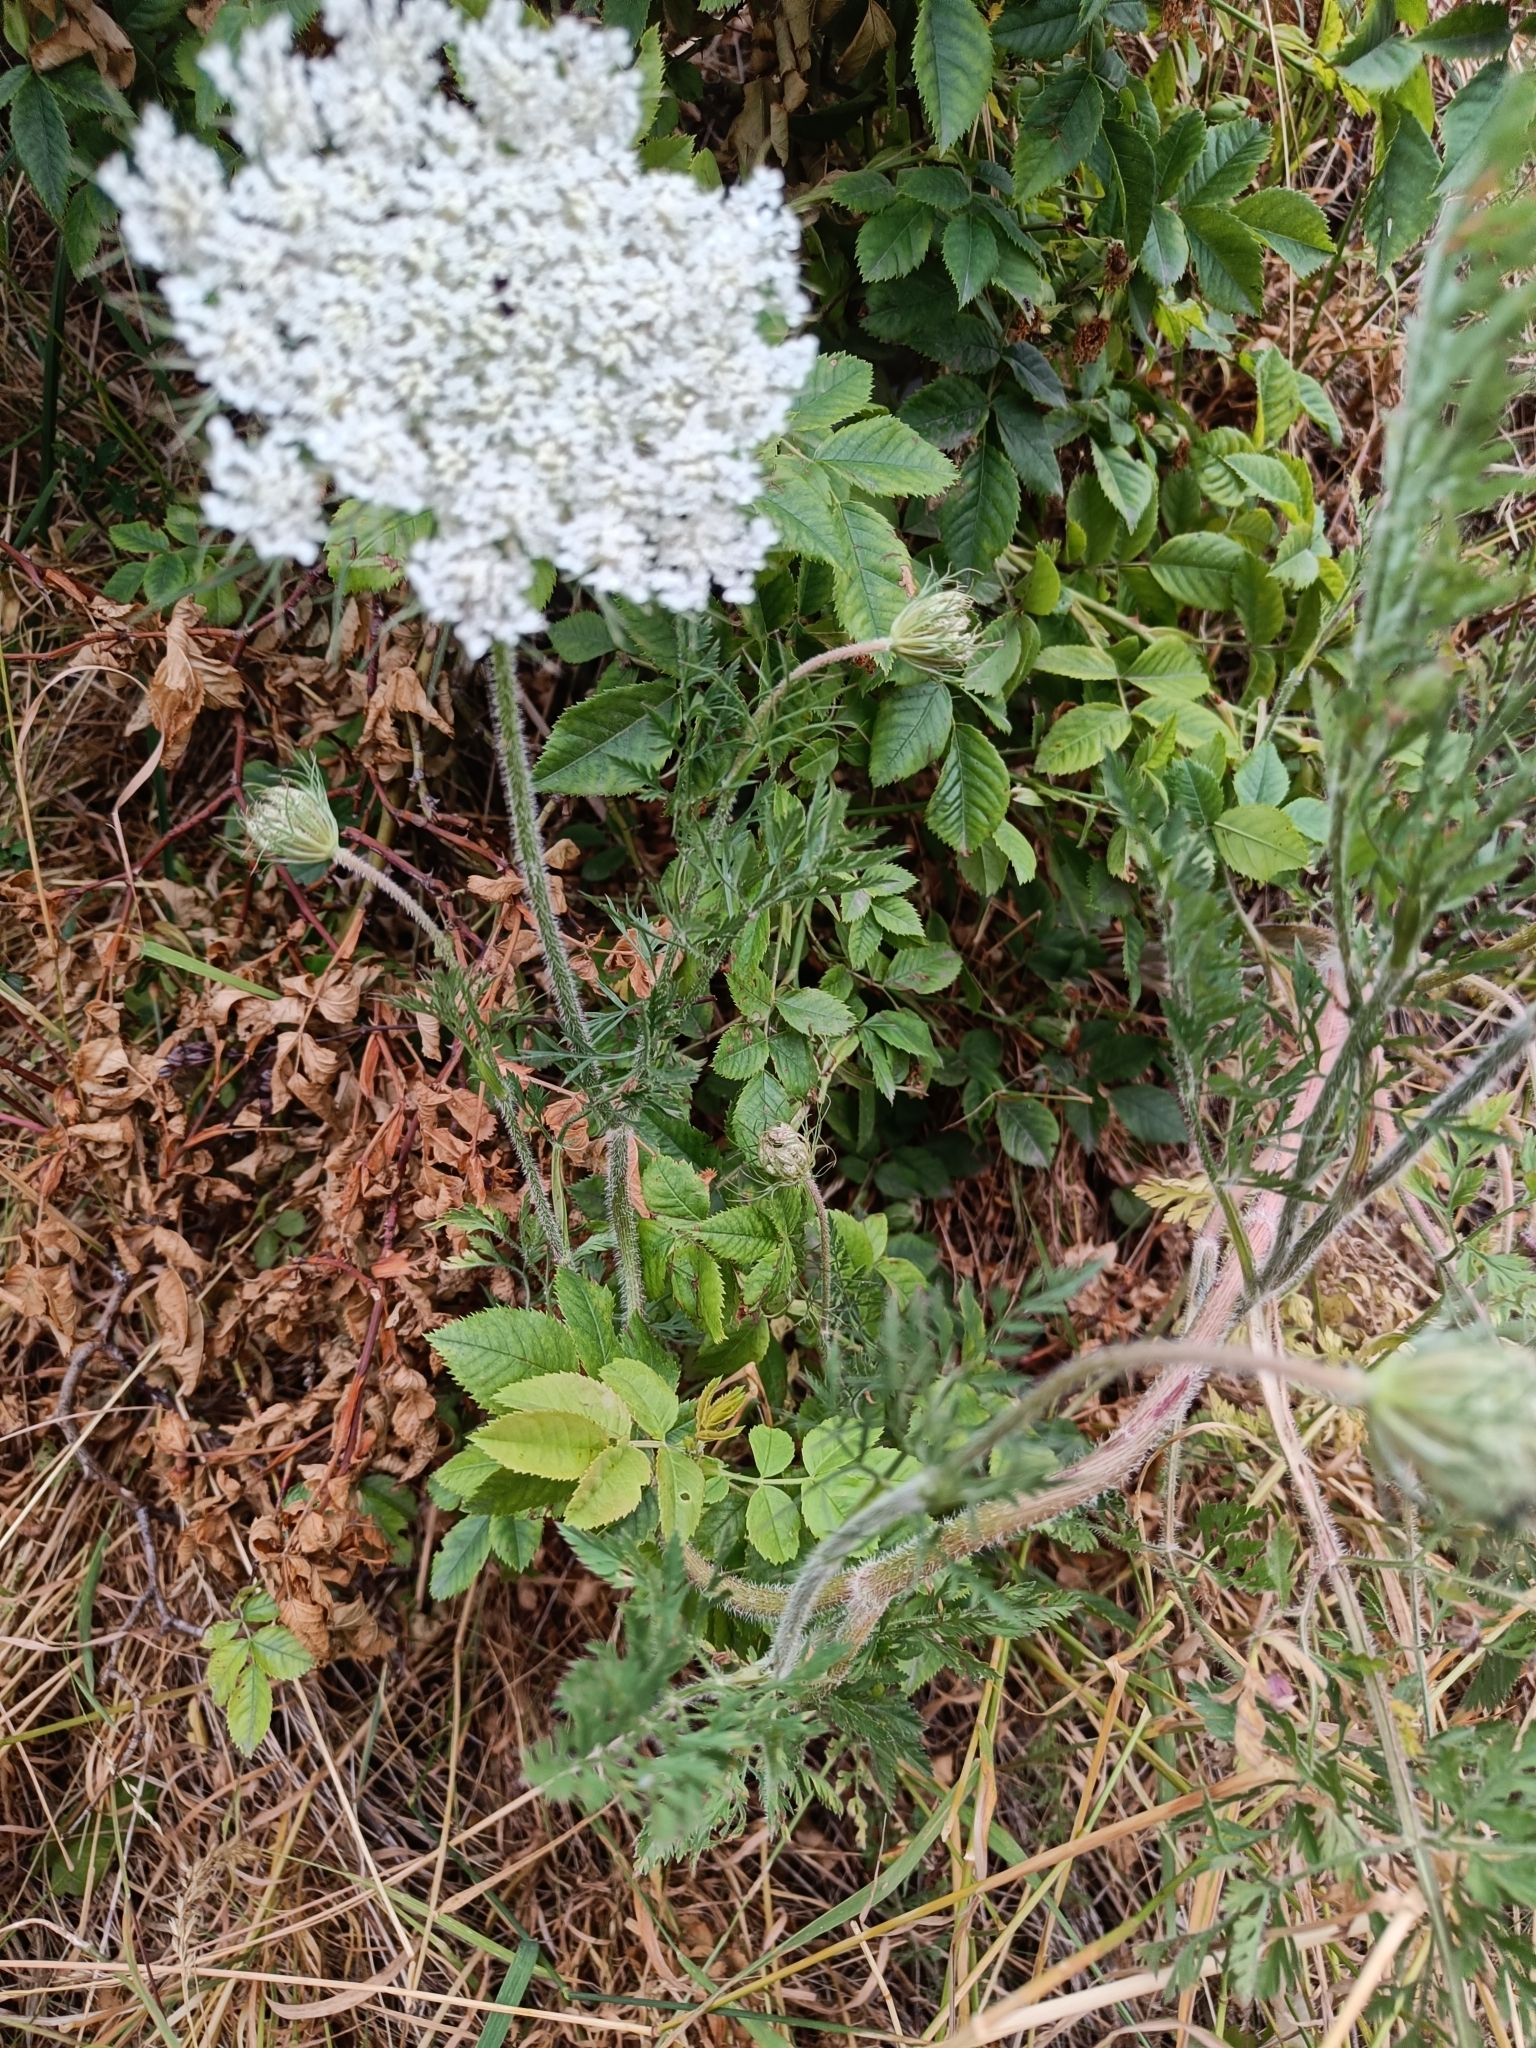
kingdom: Plantae
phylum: Tracheophyta
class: Magnoliopsida
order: Apiales
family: Apiaceae
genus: Daucus
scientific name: Daucus carota
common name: Wild carrot
